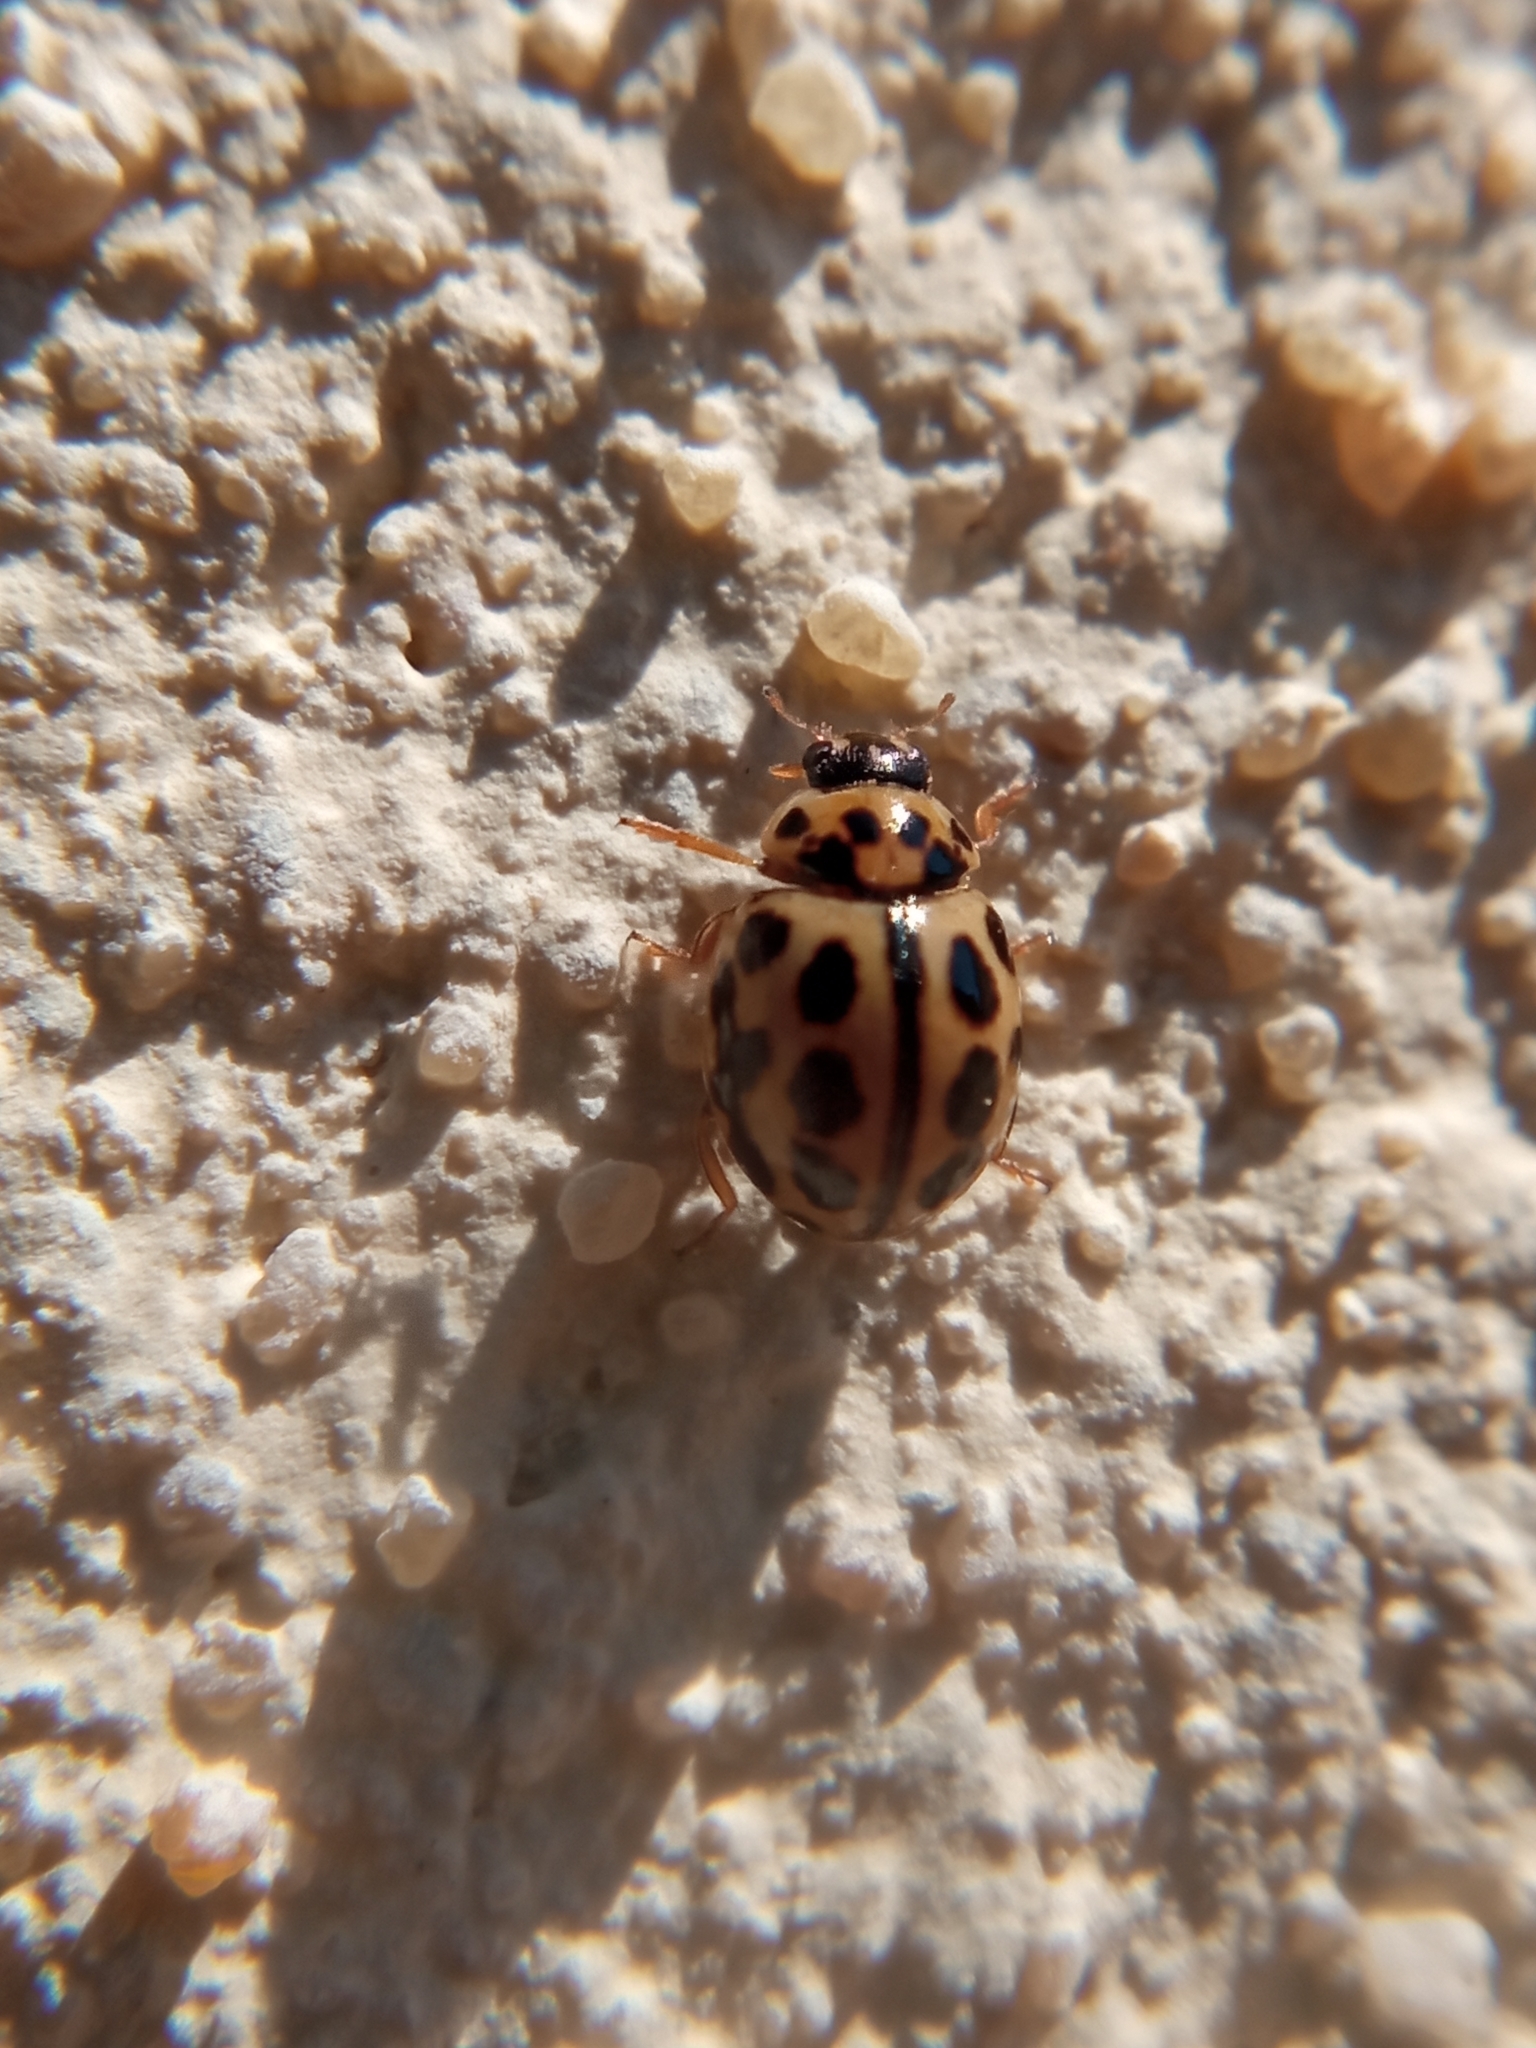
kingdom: Animalia
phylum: Arthropoda
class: Insecta
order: Coleoptera
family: Coccinellidae
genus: Tytthaspis
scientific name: Tytthaspis sedecimpunctata
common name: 16-spot ladybird
